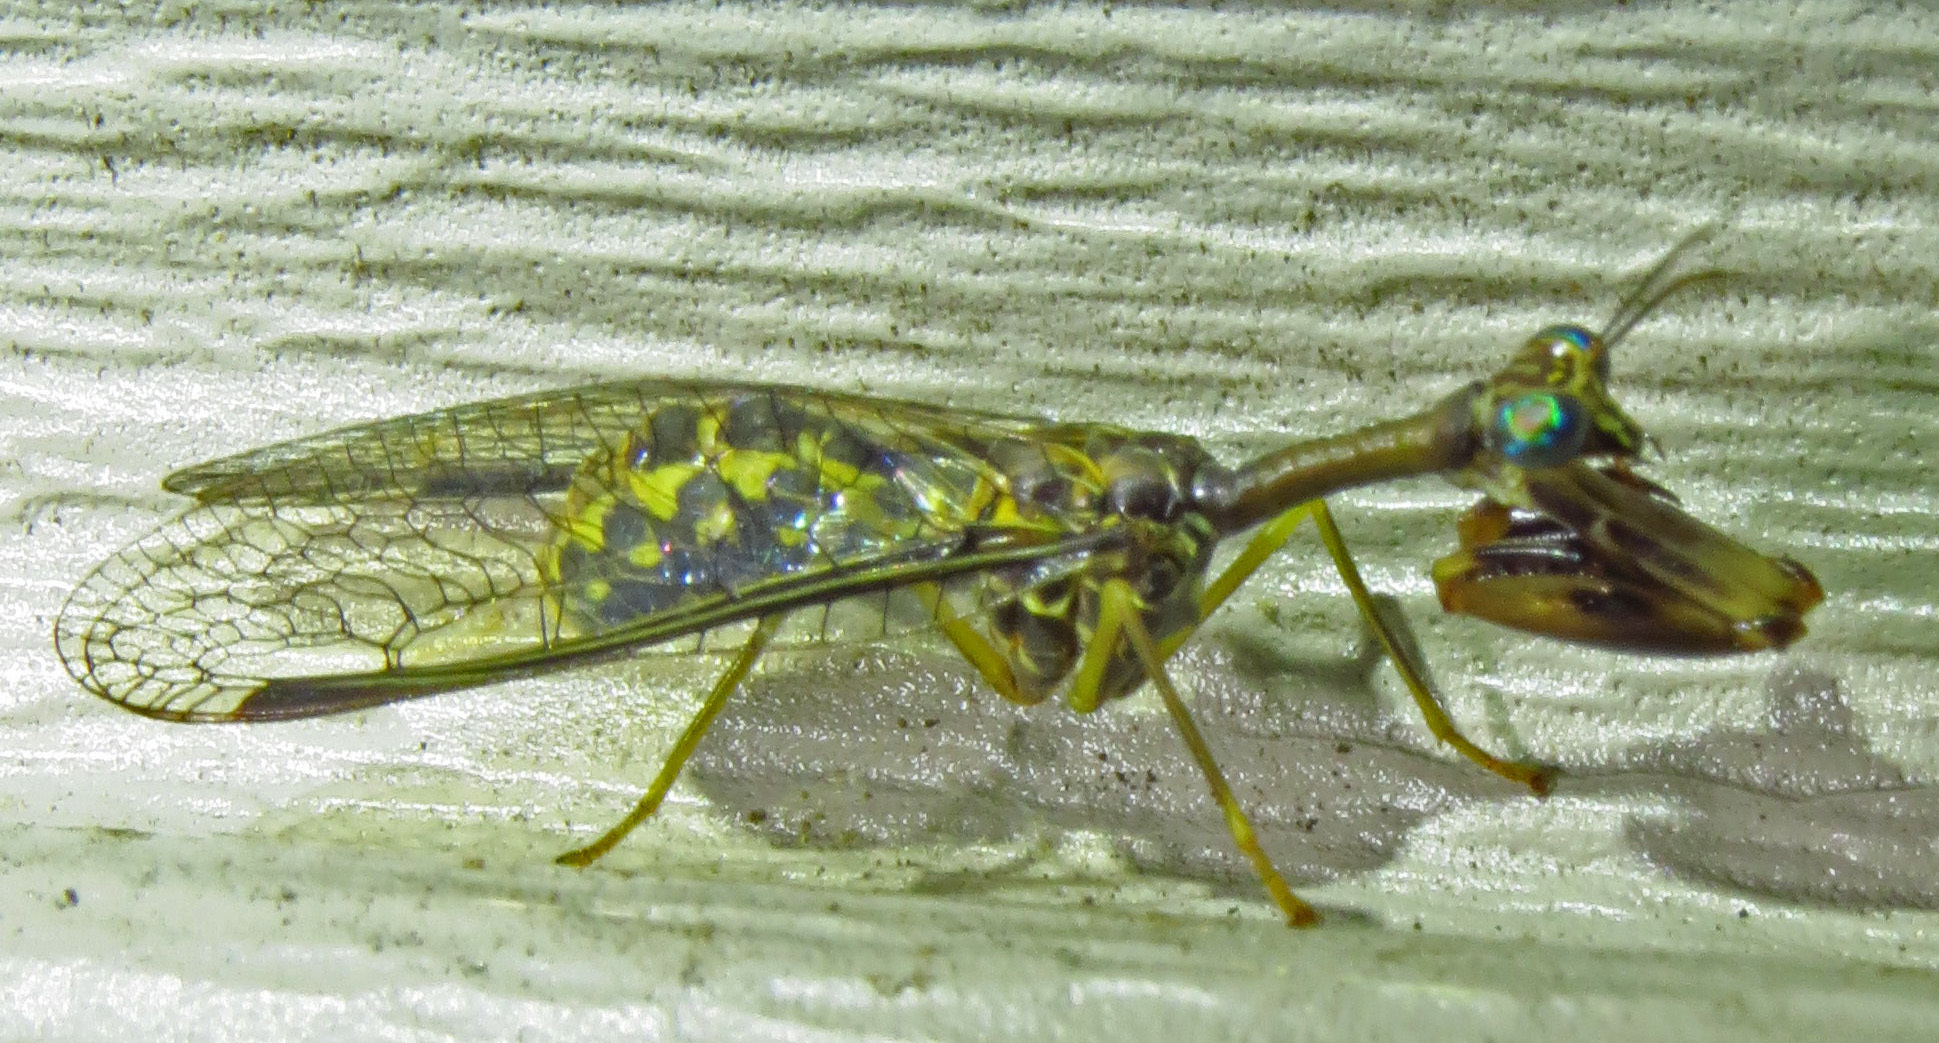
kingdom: Animalia
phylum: Arthropoda
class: Insecta
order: Neuroptera
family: Mantispidae
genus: Dicromantispa
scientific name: Dicromantispa sayi
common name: Say's mantidfly
